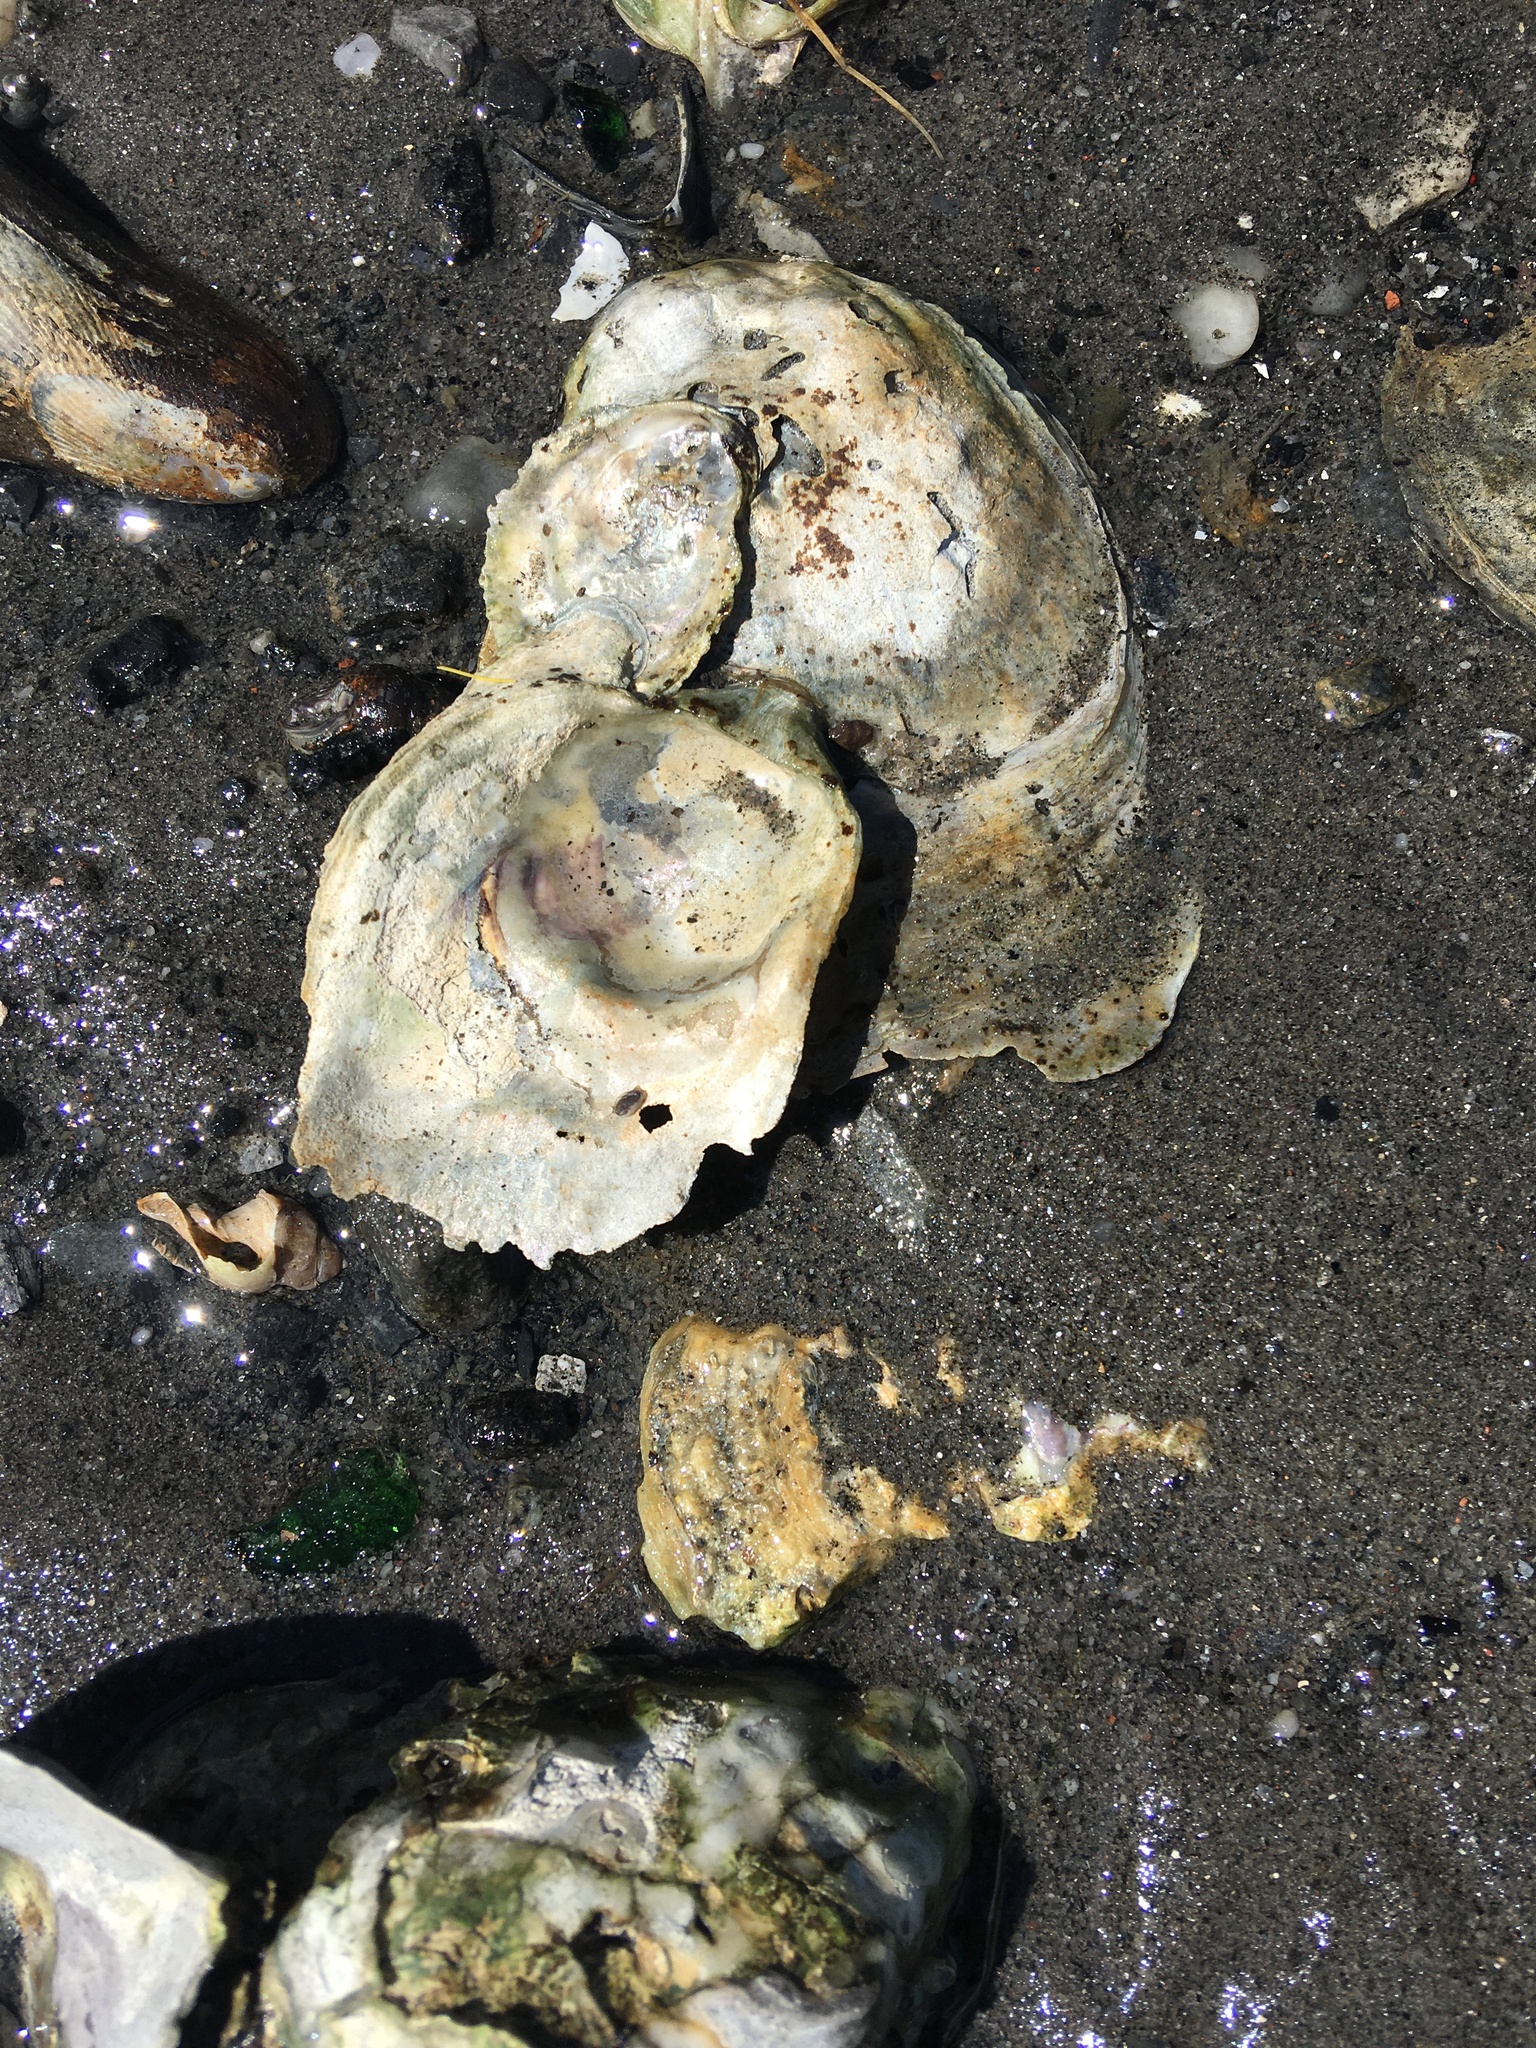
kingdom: Animalia
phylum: Mollusca
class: Bivalvia
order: Ostreida
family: Ostreidae
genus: Crassostrea
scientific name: Crassostrea virginica
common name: American oyster
